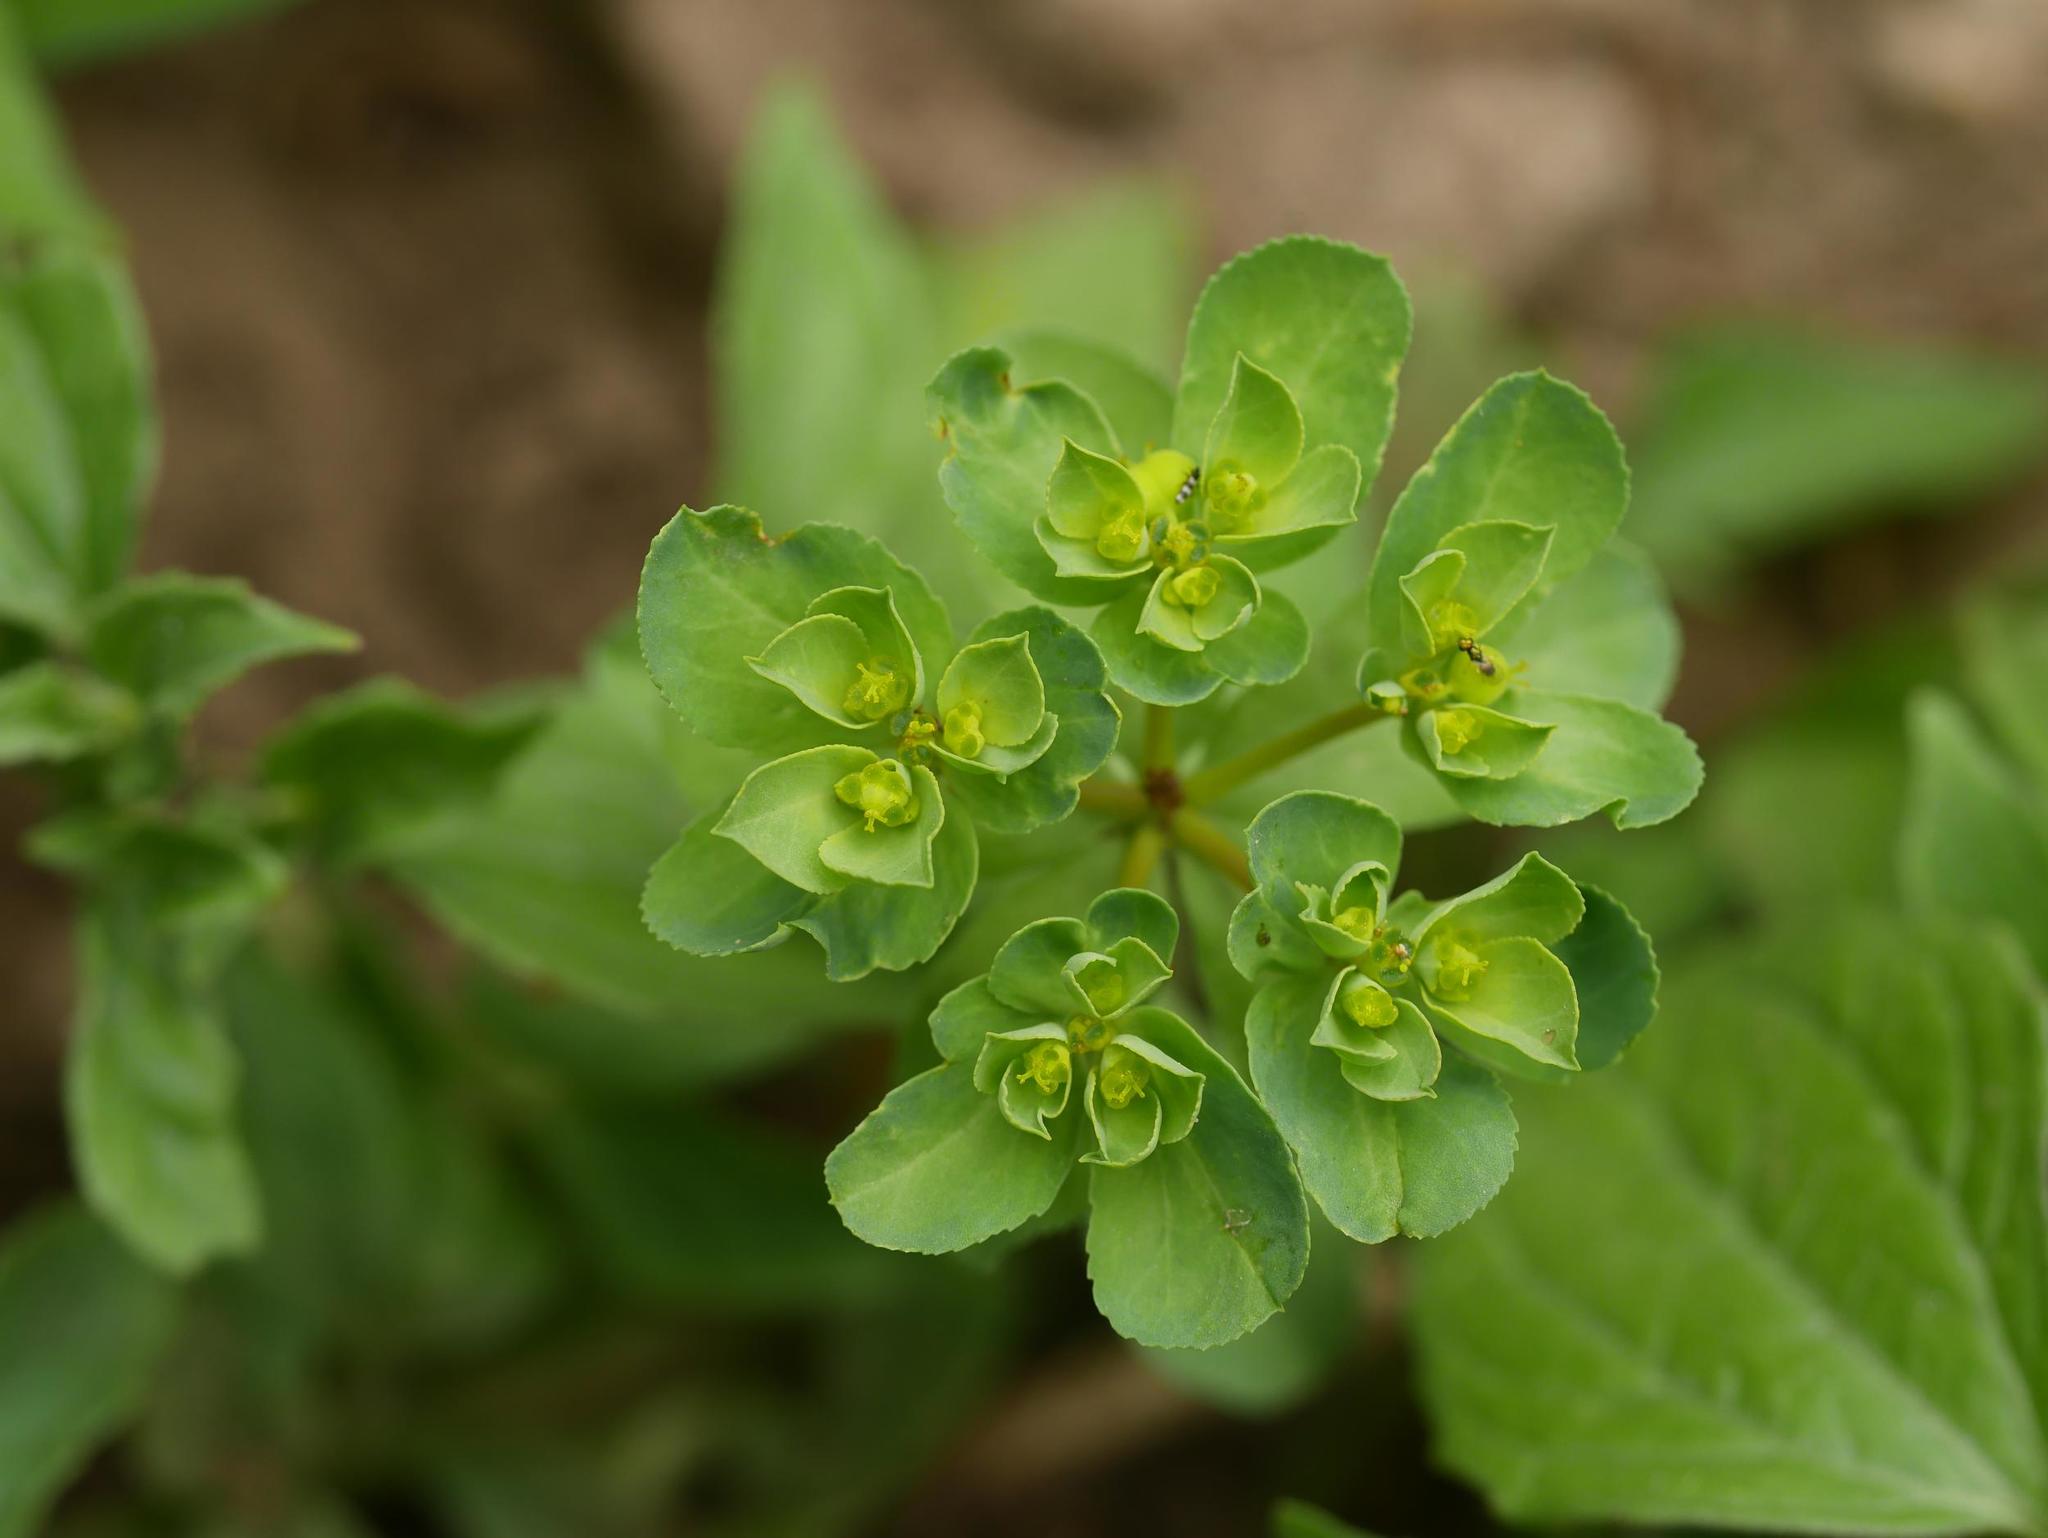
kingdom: Plantae
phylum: Tracheophyta
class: Magnoliopsida
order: Malpighiales
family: Euphorbiaceae
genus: Euphorbia
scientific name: Euphorbia helioscopia
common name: Sun spurge
